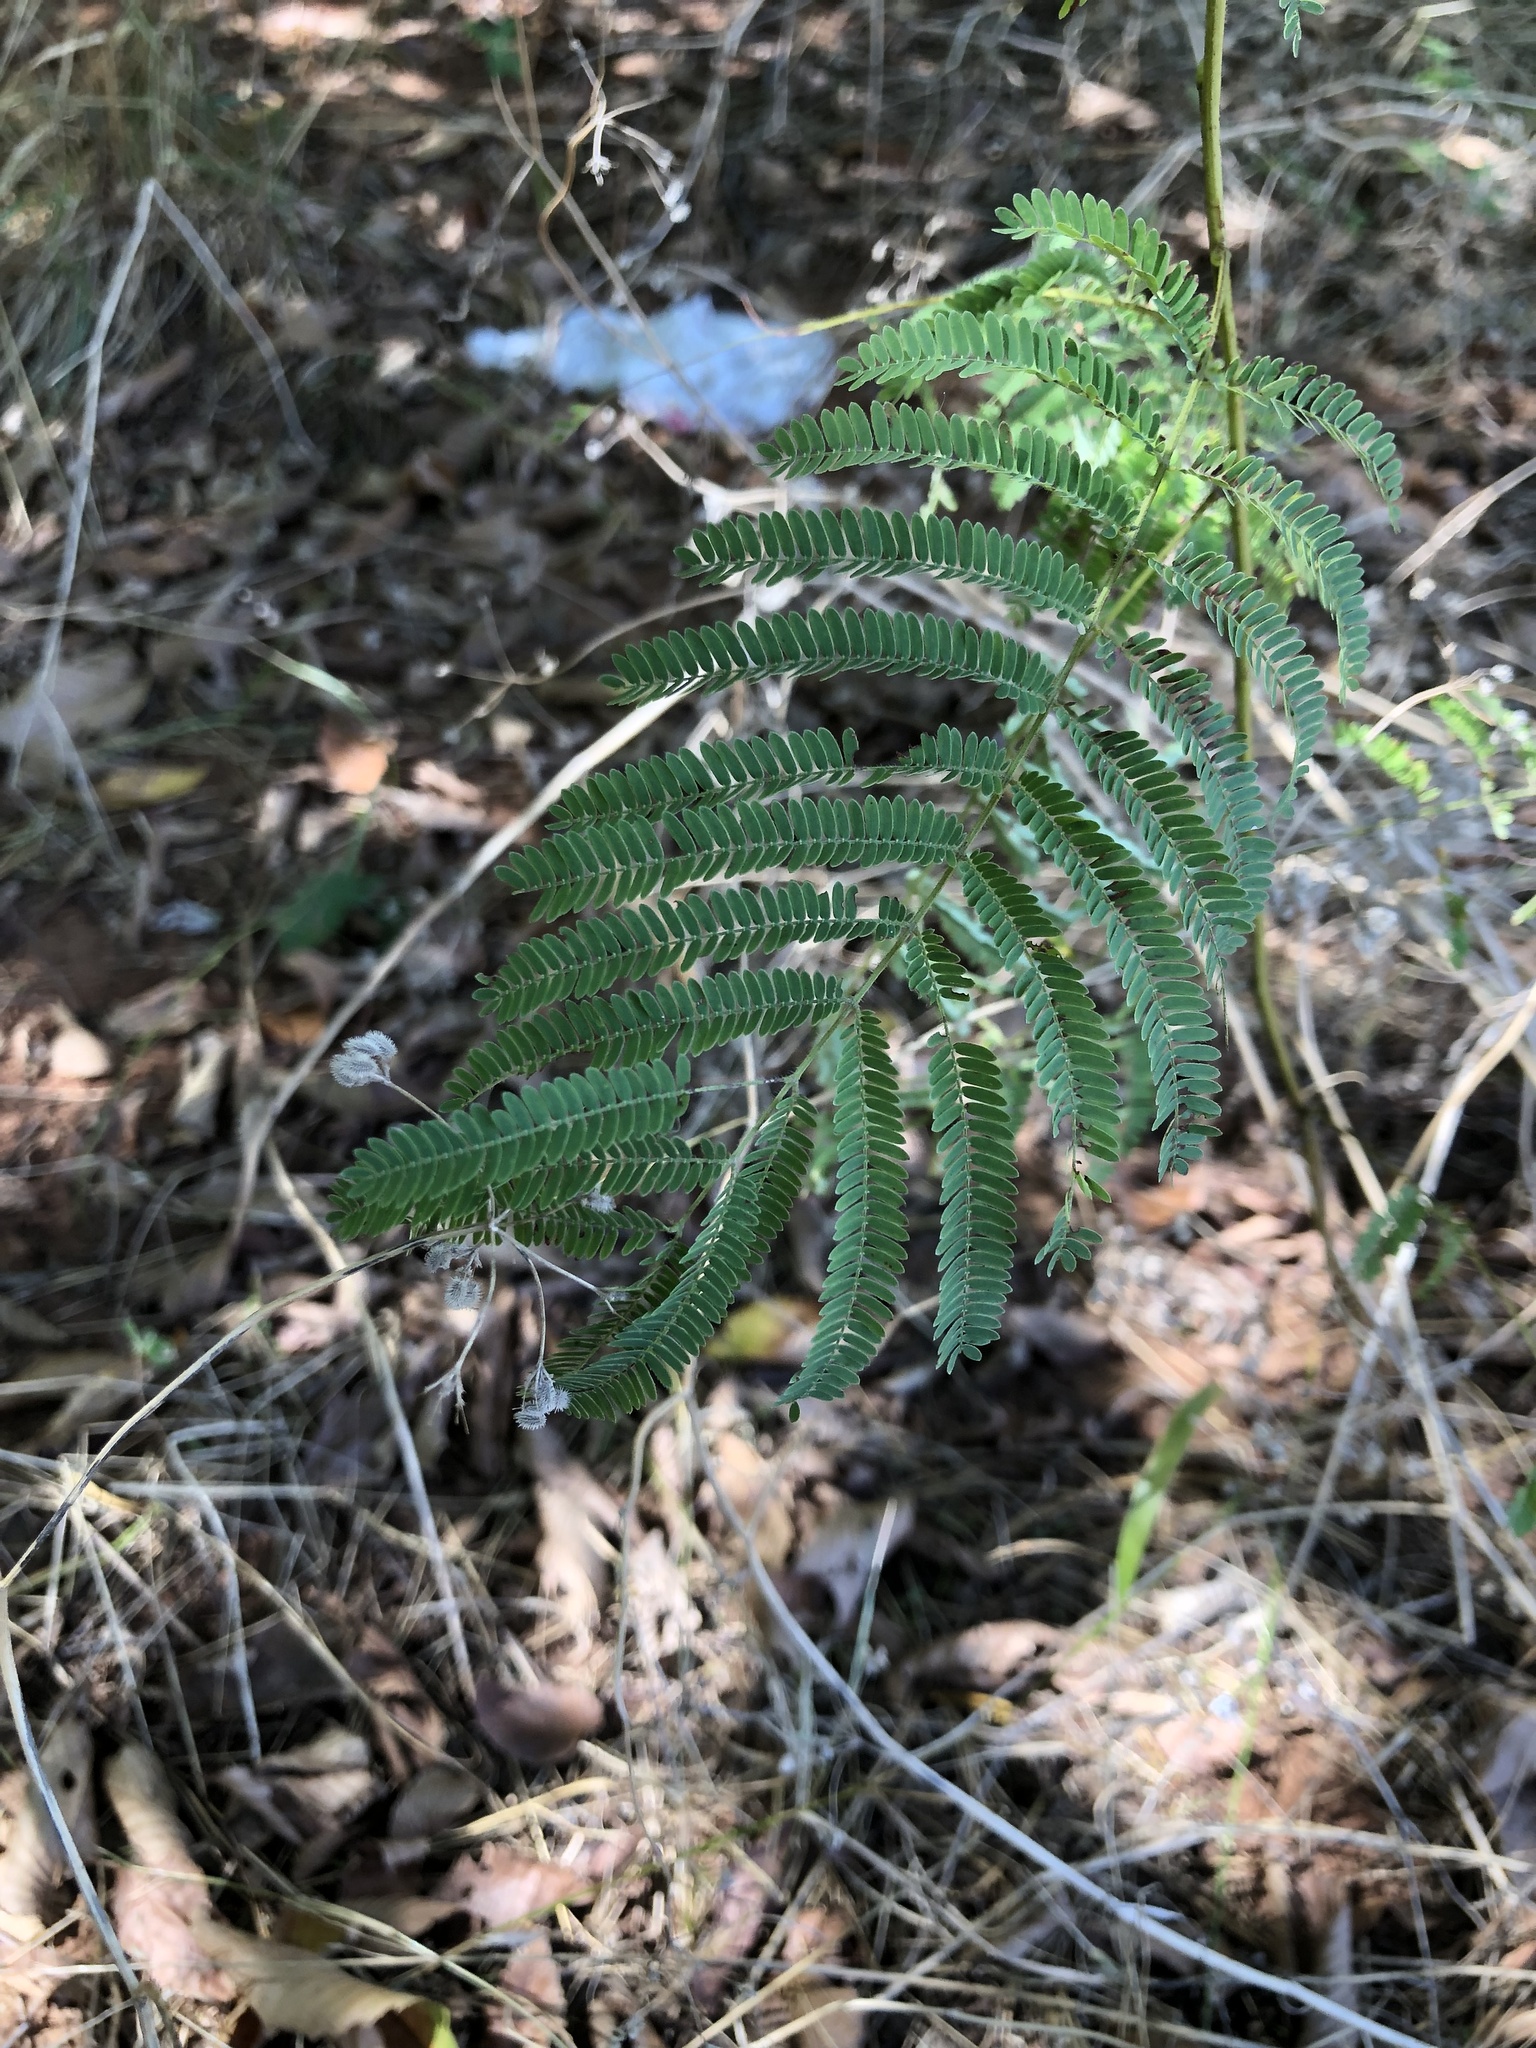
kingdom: Plantae
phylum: Tracheophyta
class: Magnoliopsida
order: Fabales
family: Fabaceae
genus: Albizia
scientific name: Albizia julibrissin
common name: Silktree
